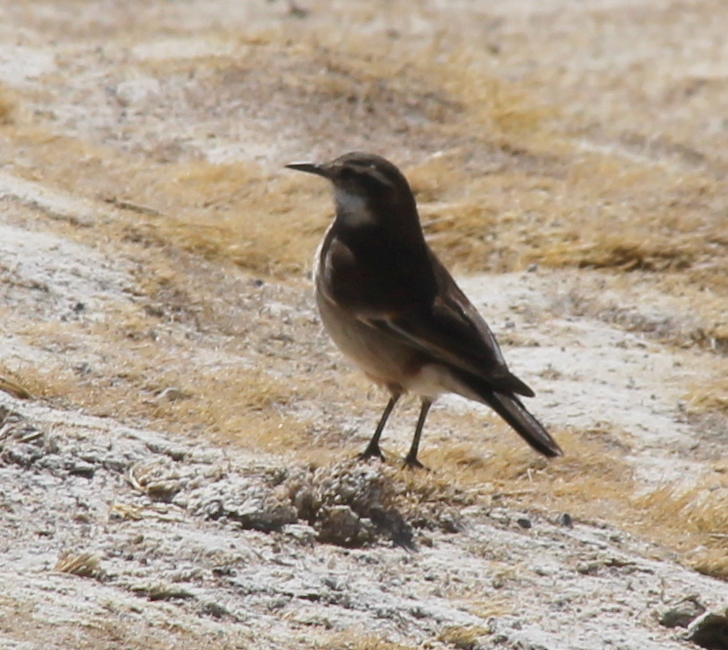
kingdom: Animalia
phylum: Chordata
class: Aves
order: Passeriformes
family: Furnariidae
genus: Cinclodes
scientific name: Cinclodes atacamensis
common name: White-winged cinclodes
